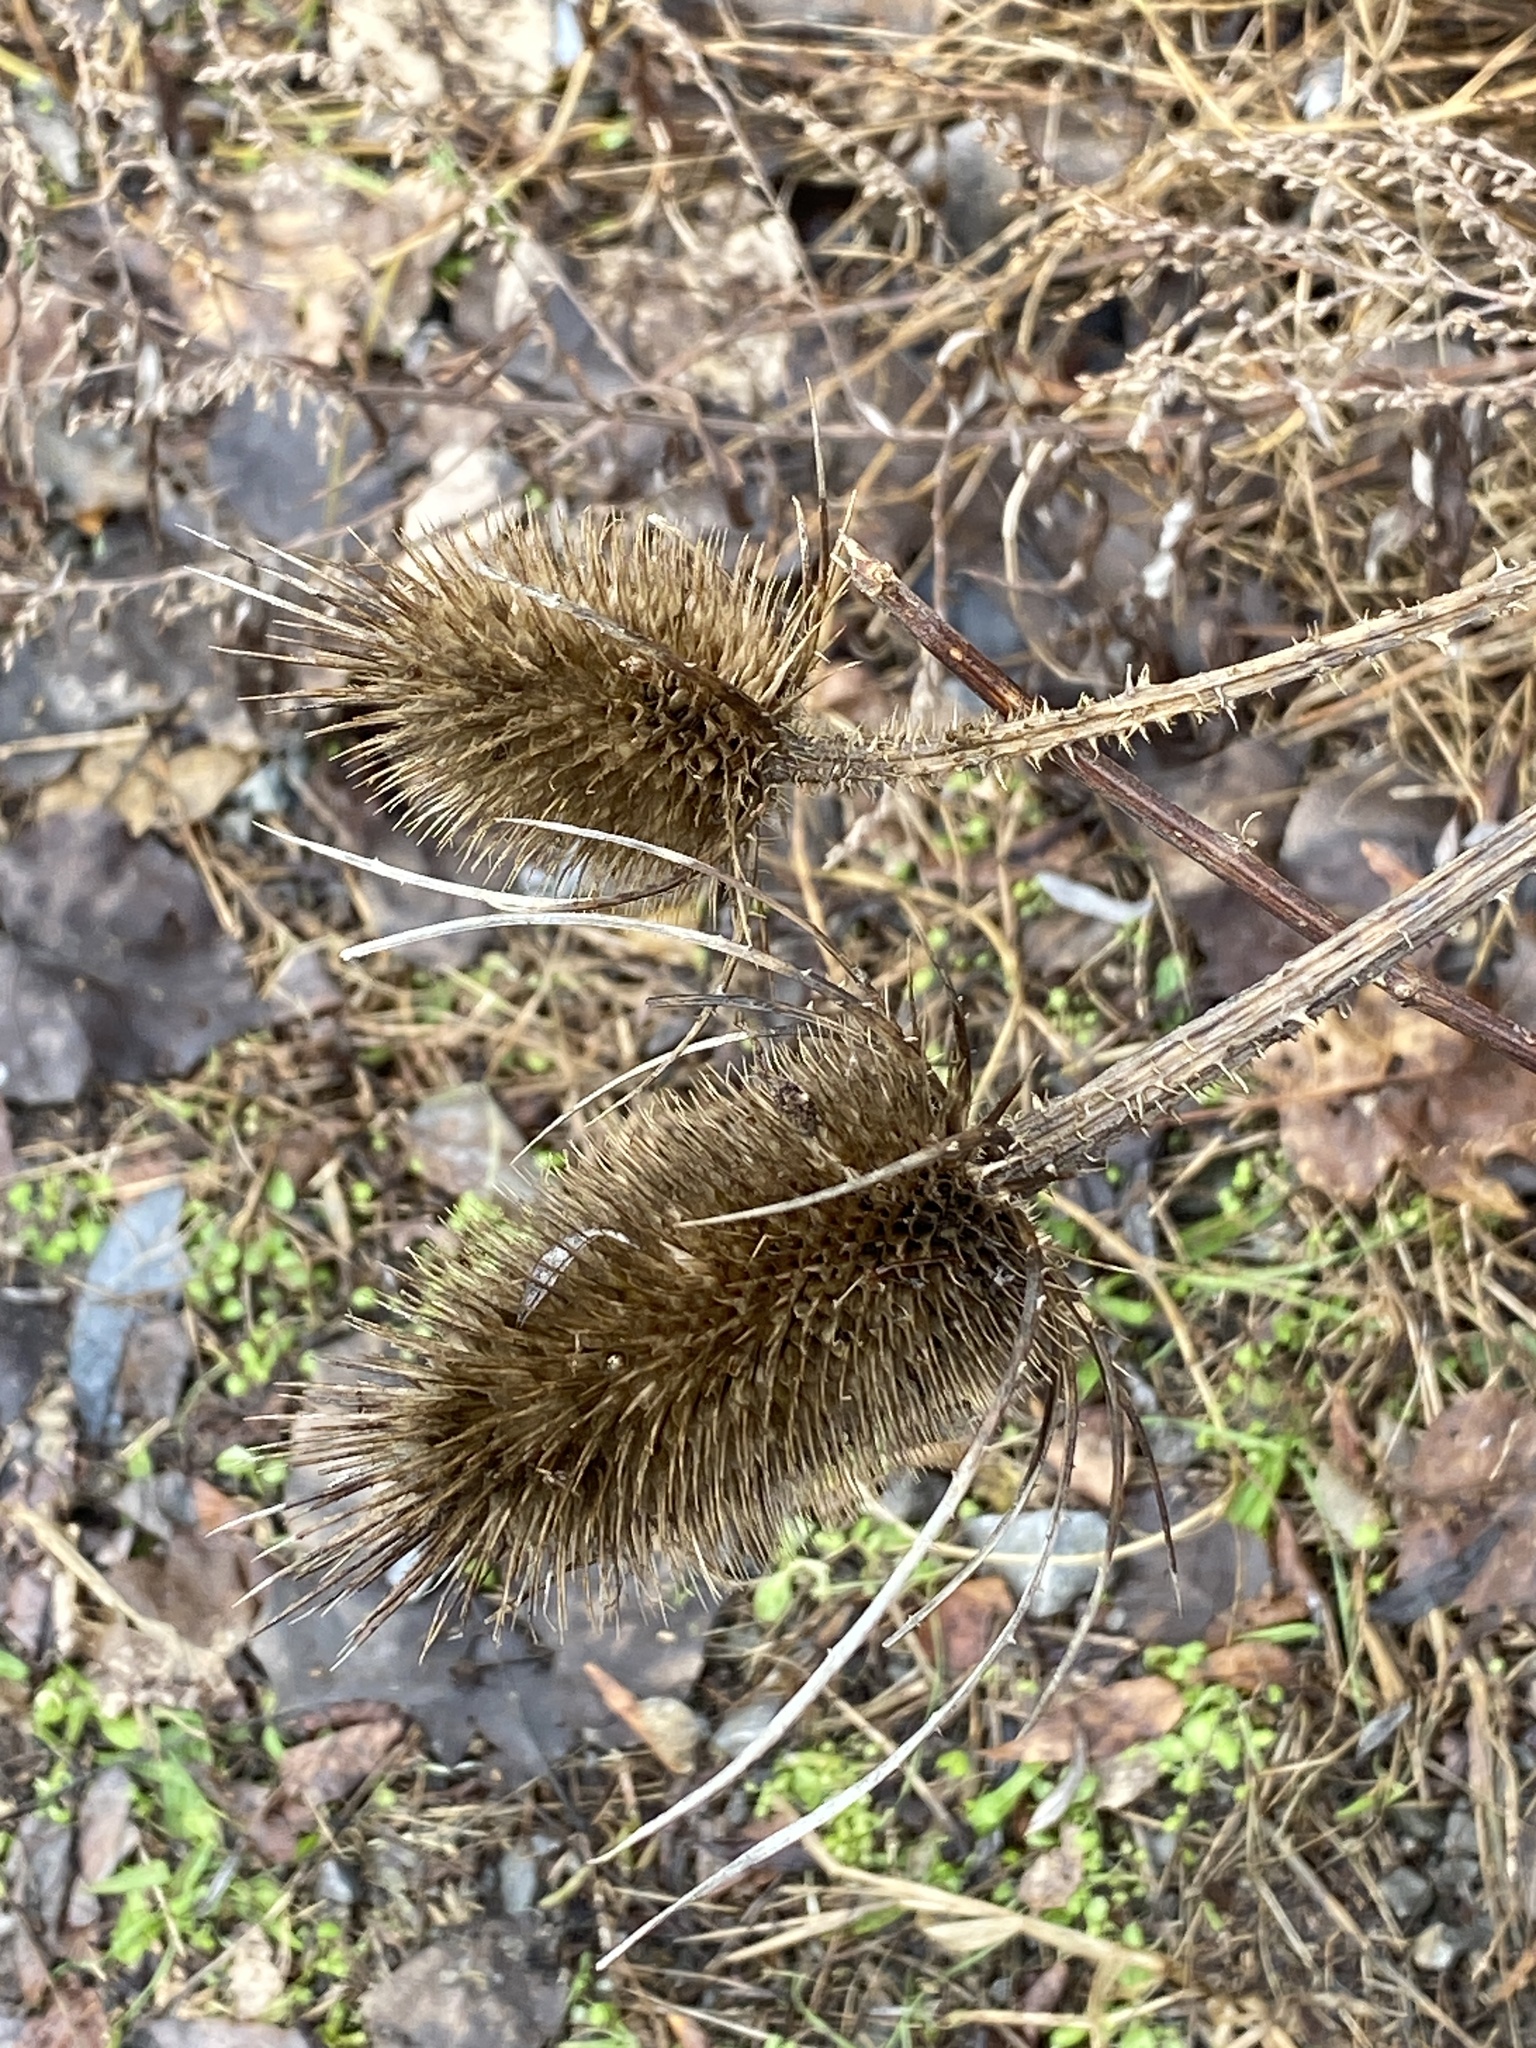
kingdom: Plantae
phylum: Tracheophyta
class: Magnoliopsida
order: Dipsacales
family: Caprifoliaceae
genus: Dipsacus
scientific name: Dipsacus fullonum
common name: Teasel
